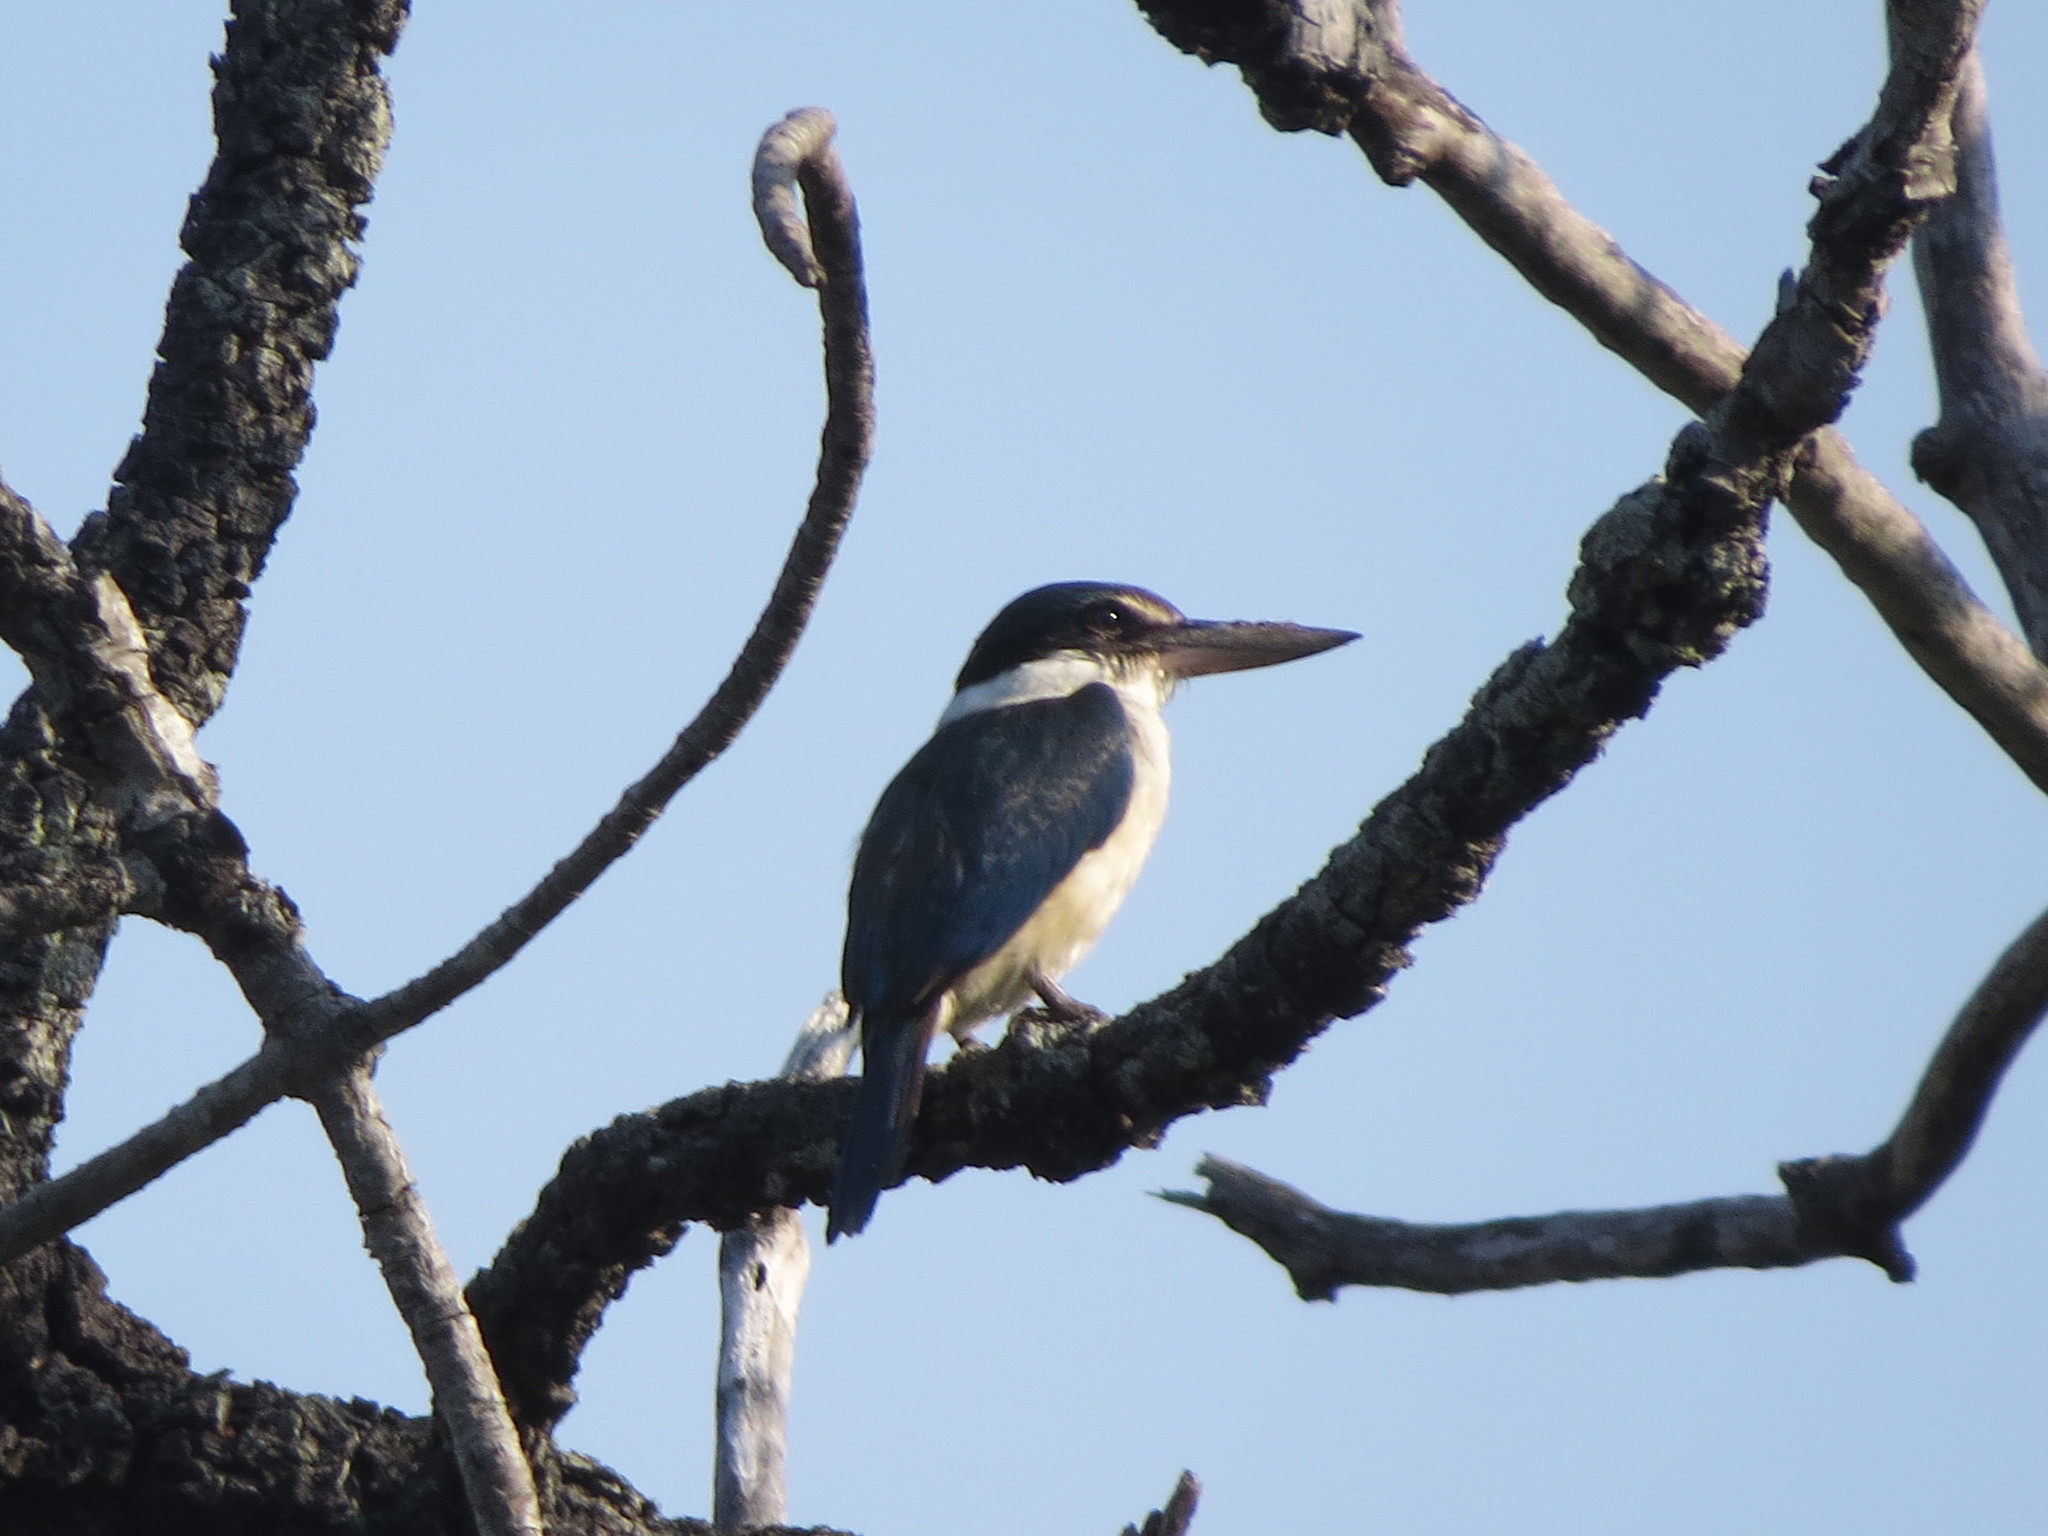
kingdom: Animalia
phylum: Chordata
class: Aves
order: Coraciiformes
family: Alcedinidae
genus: Todiramphus
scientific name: Todiramphus chloris
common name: Collared kingfisher
